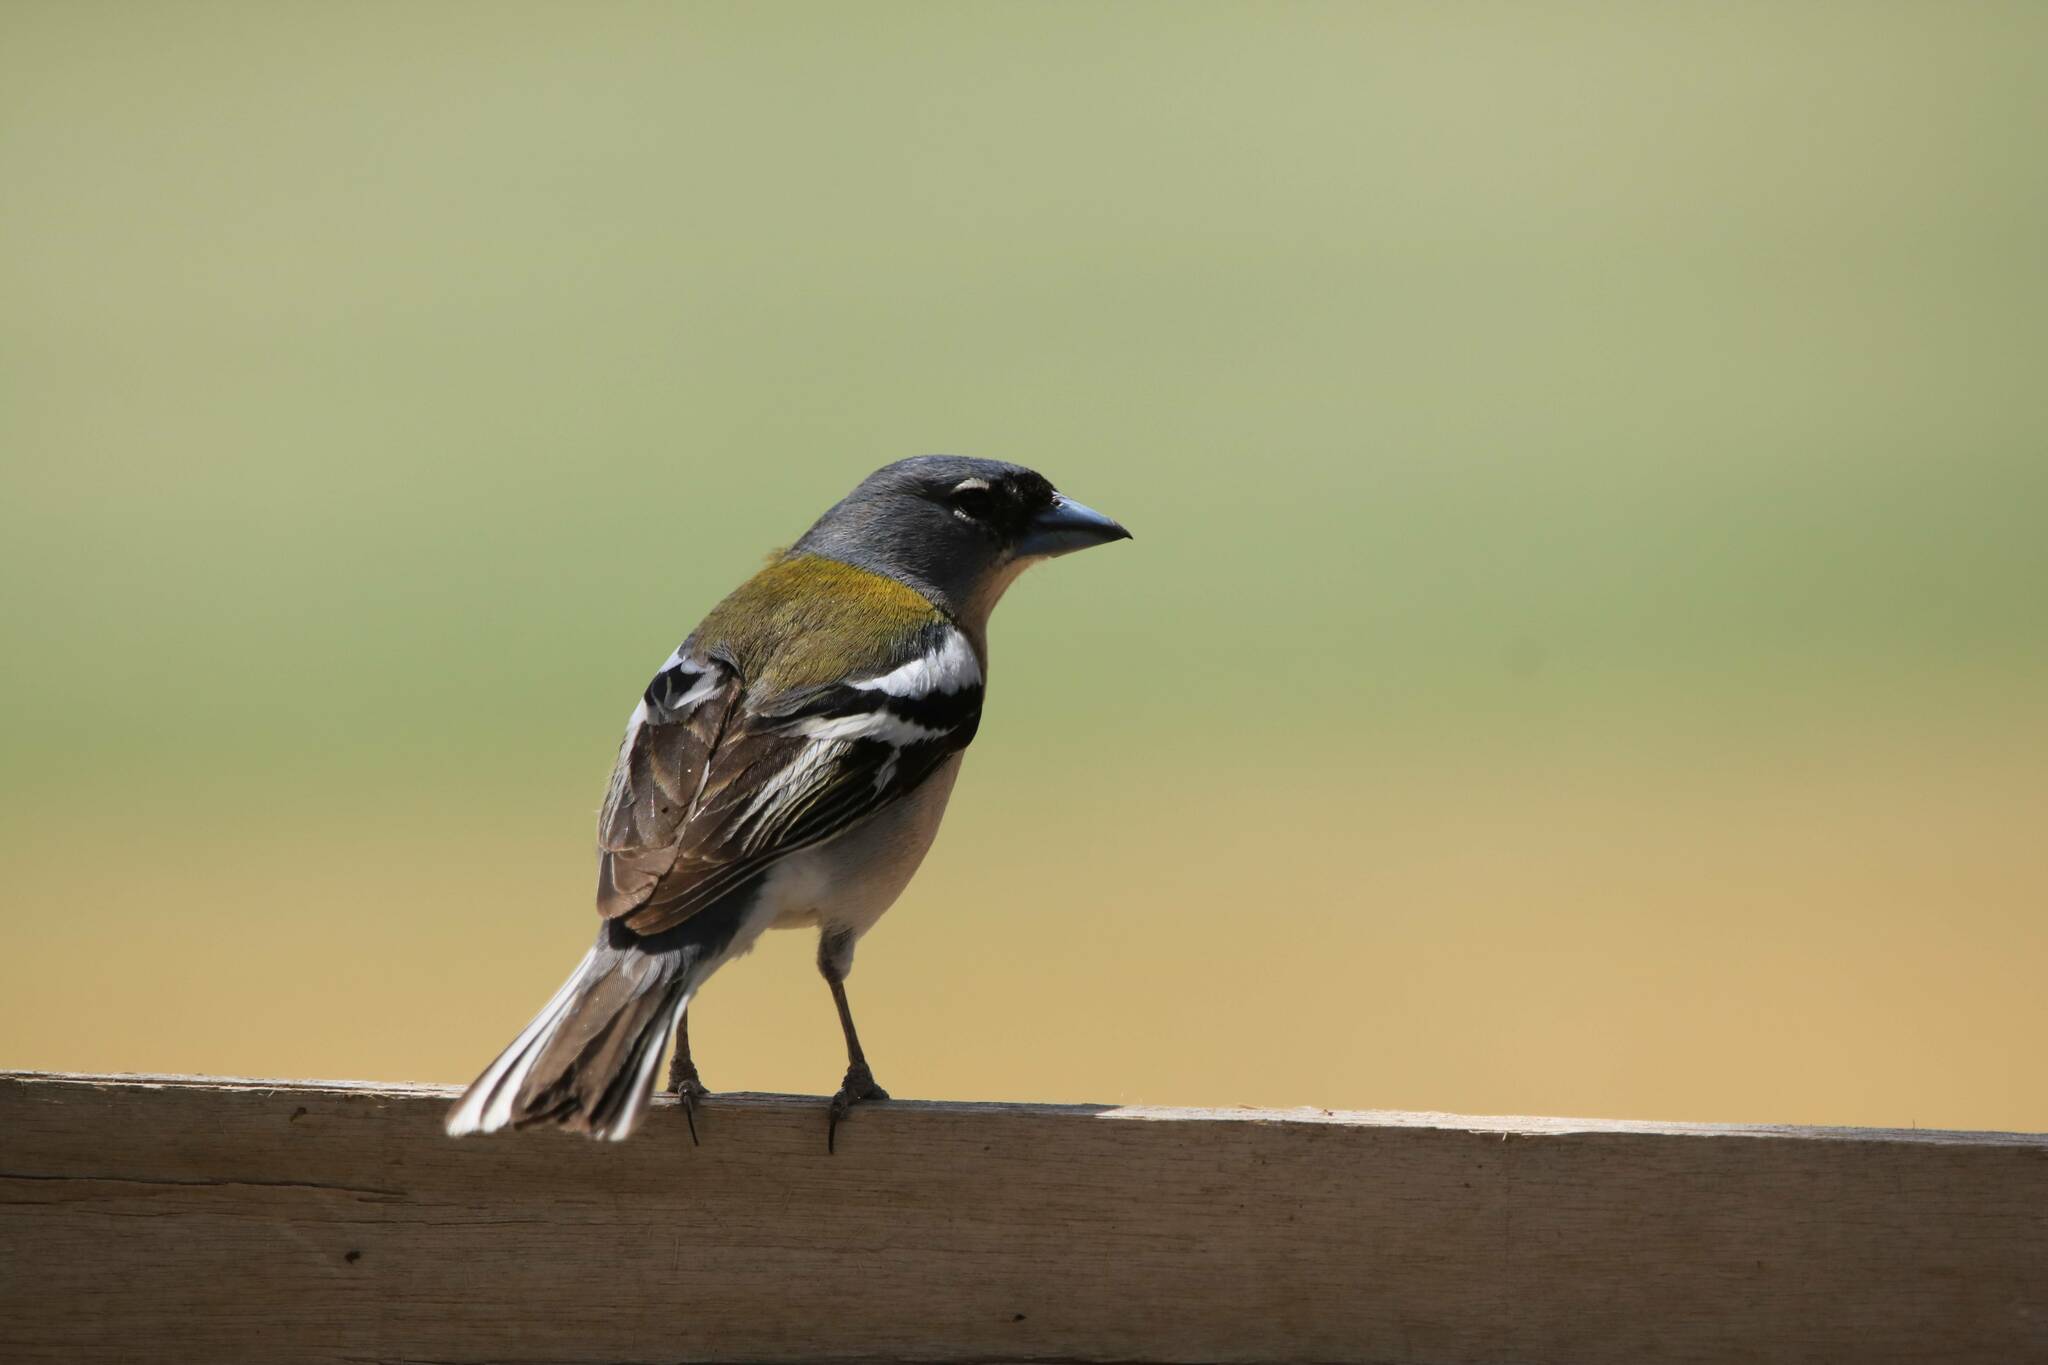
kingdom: Animalia
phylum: Chordata
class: Aves
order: Passeriformes
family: Fringillidae
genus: Fringilla
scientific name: Fringilla spodiogenys
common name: African chaffinch
